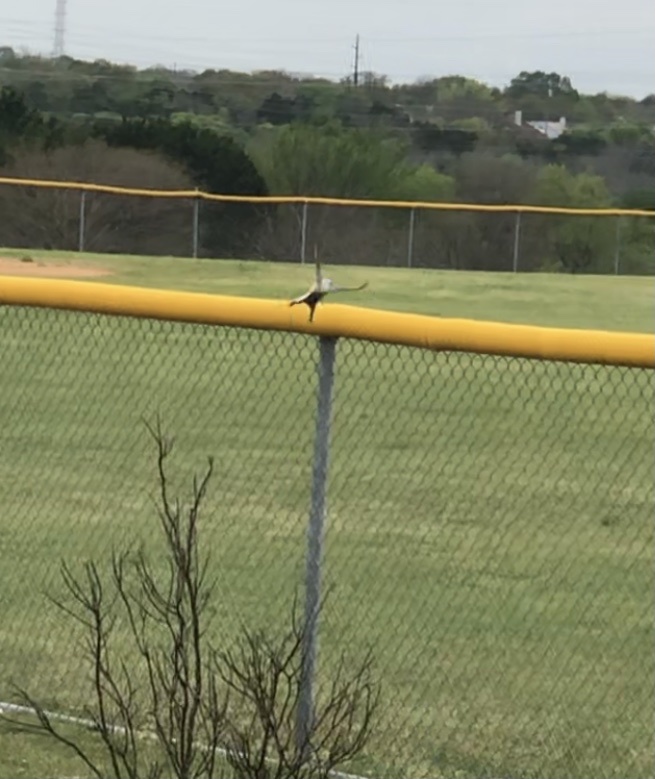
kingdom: Animalia
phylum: Chordata
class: Aves
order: Passeriformes
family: Tyrannidae
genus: Tyrannus
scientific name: Tyrannus forficatus
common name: Scissor-tailed flycatcher
